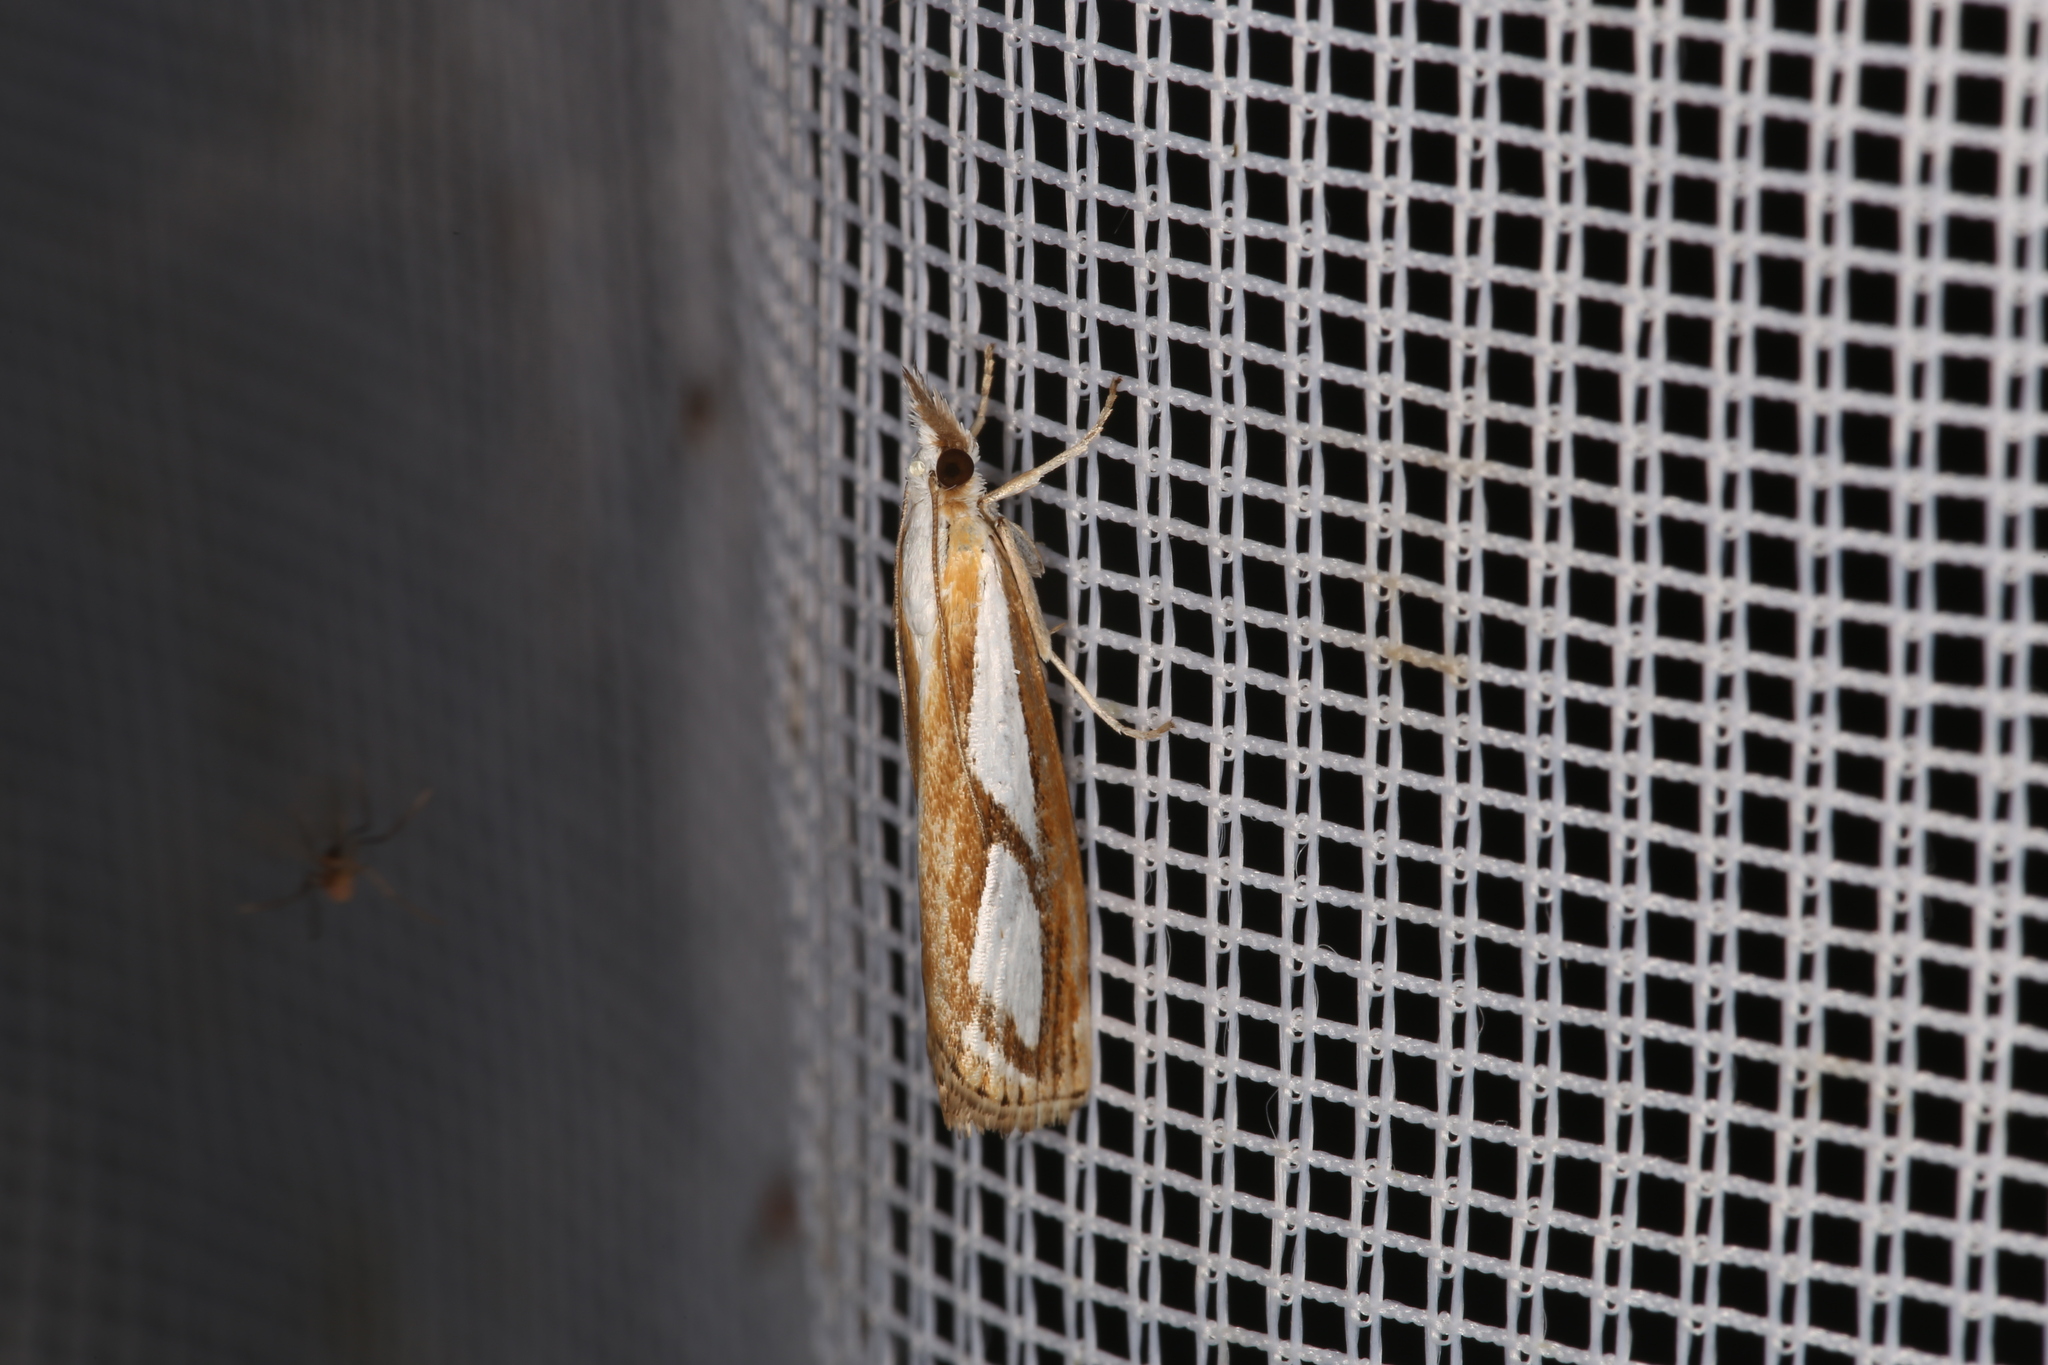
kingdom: Animalia
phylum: Arthropoda
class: Insecta
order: Lepidoptera
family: Crambidae
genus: Catoptria
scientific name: Catoptria
